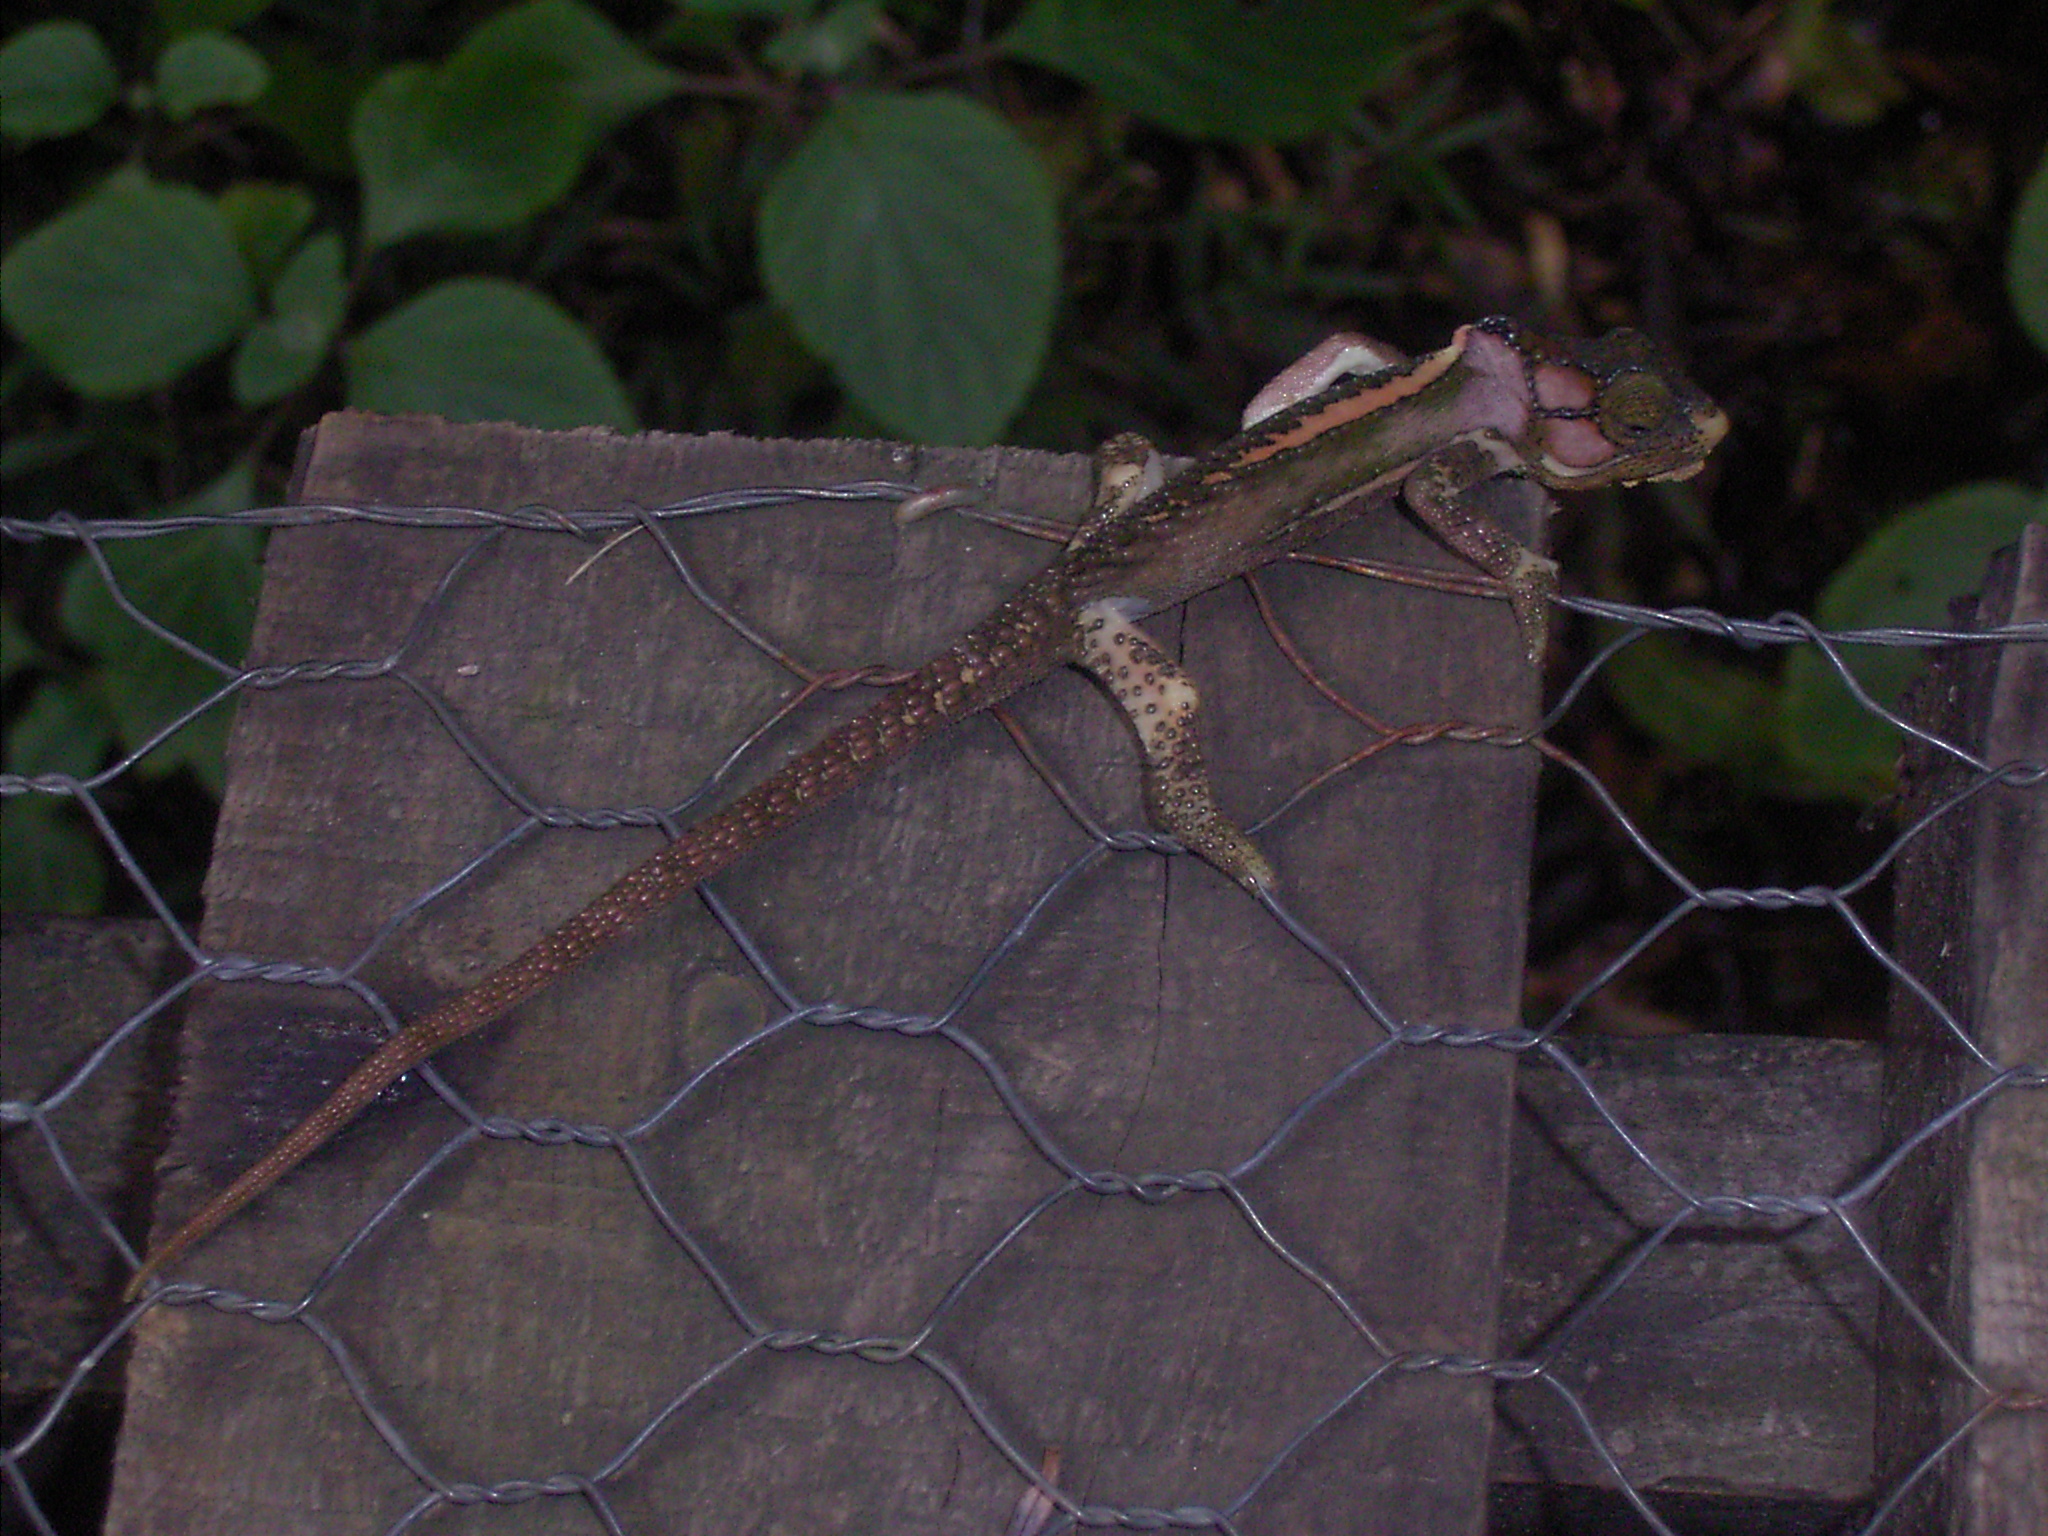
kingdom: Animalia
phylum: Chordata
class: Squamata
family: Chamaeleonidae
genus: Bradypodion
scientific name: Bradypodion damaranum
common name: Knysna dwarf chameleon
